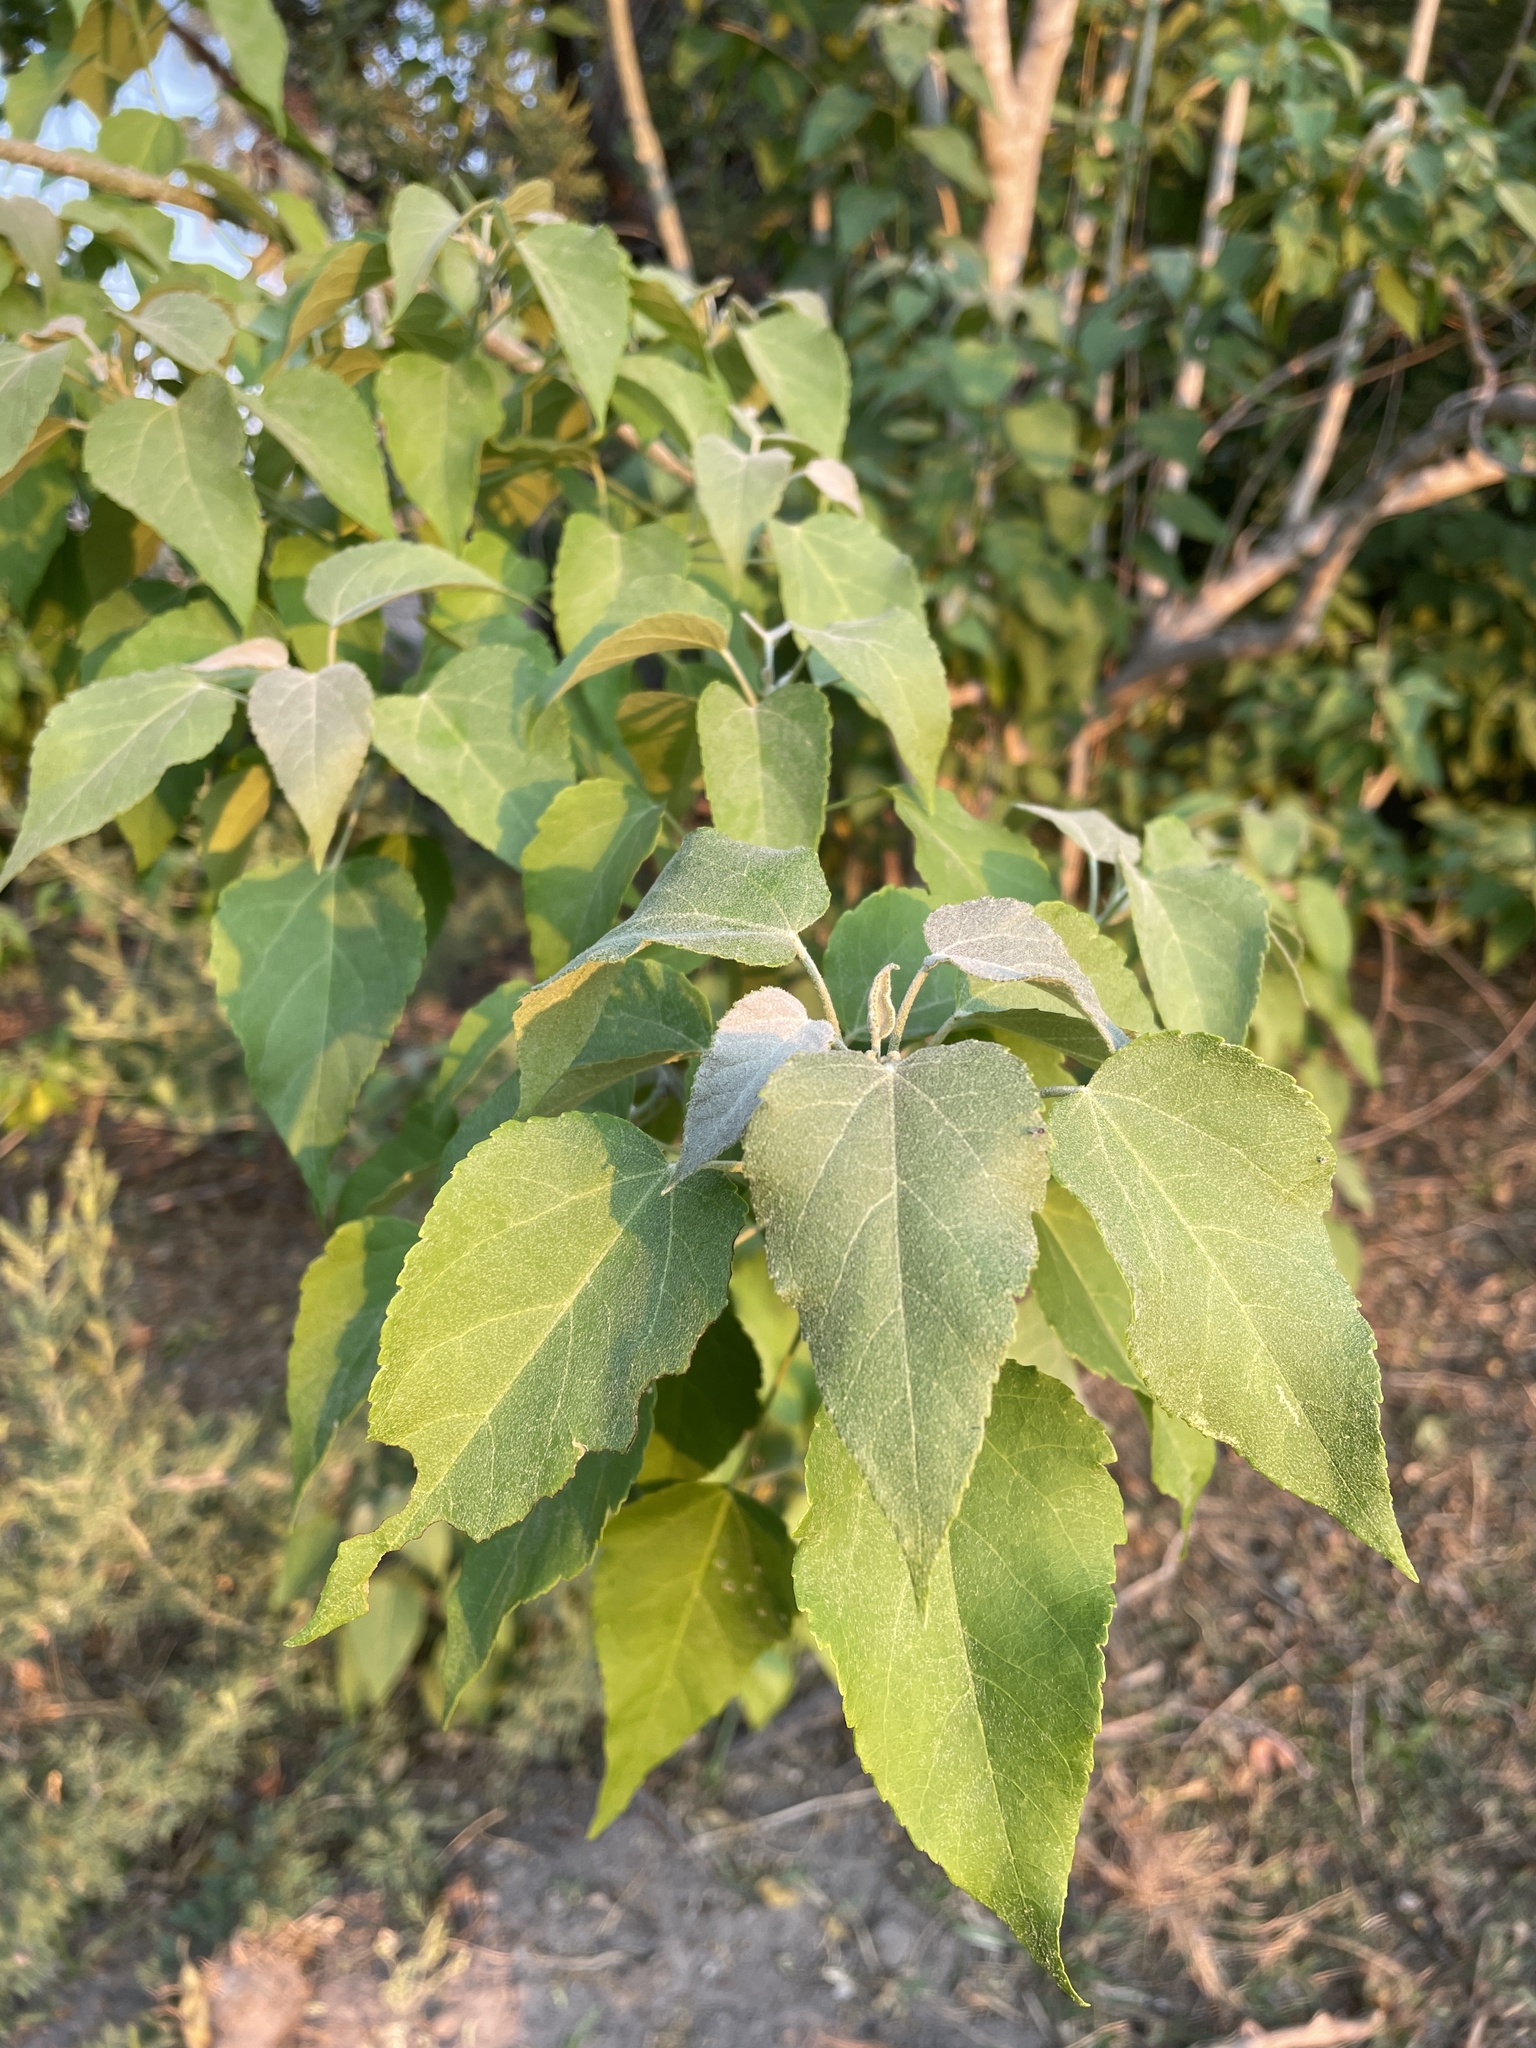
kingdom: Plantae
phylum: Tracheophyta
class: Magnoliopsida
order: Malpighiales
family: Euphorbiaceae
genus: Croton
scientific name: Croton megalobotrys
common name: Large fever berry
